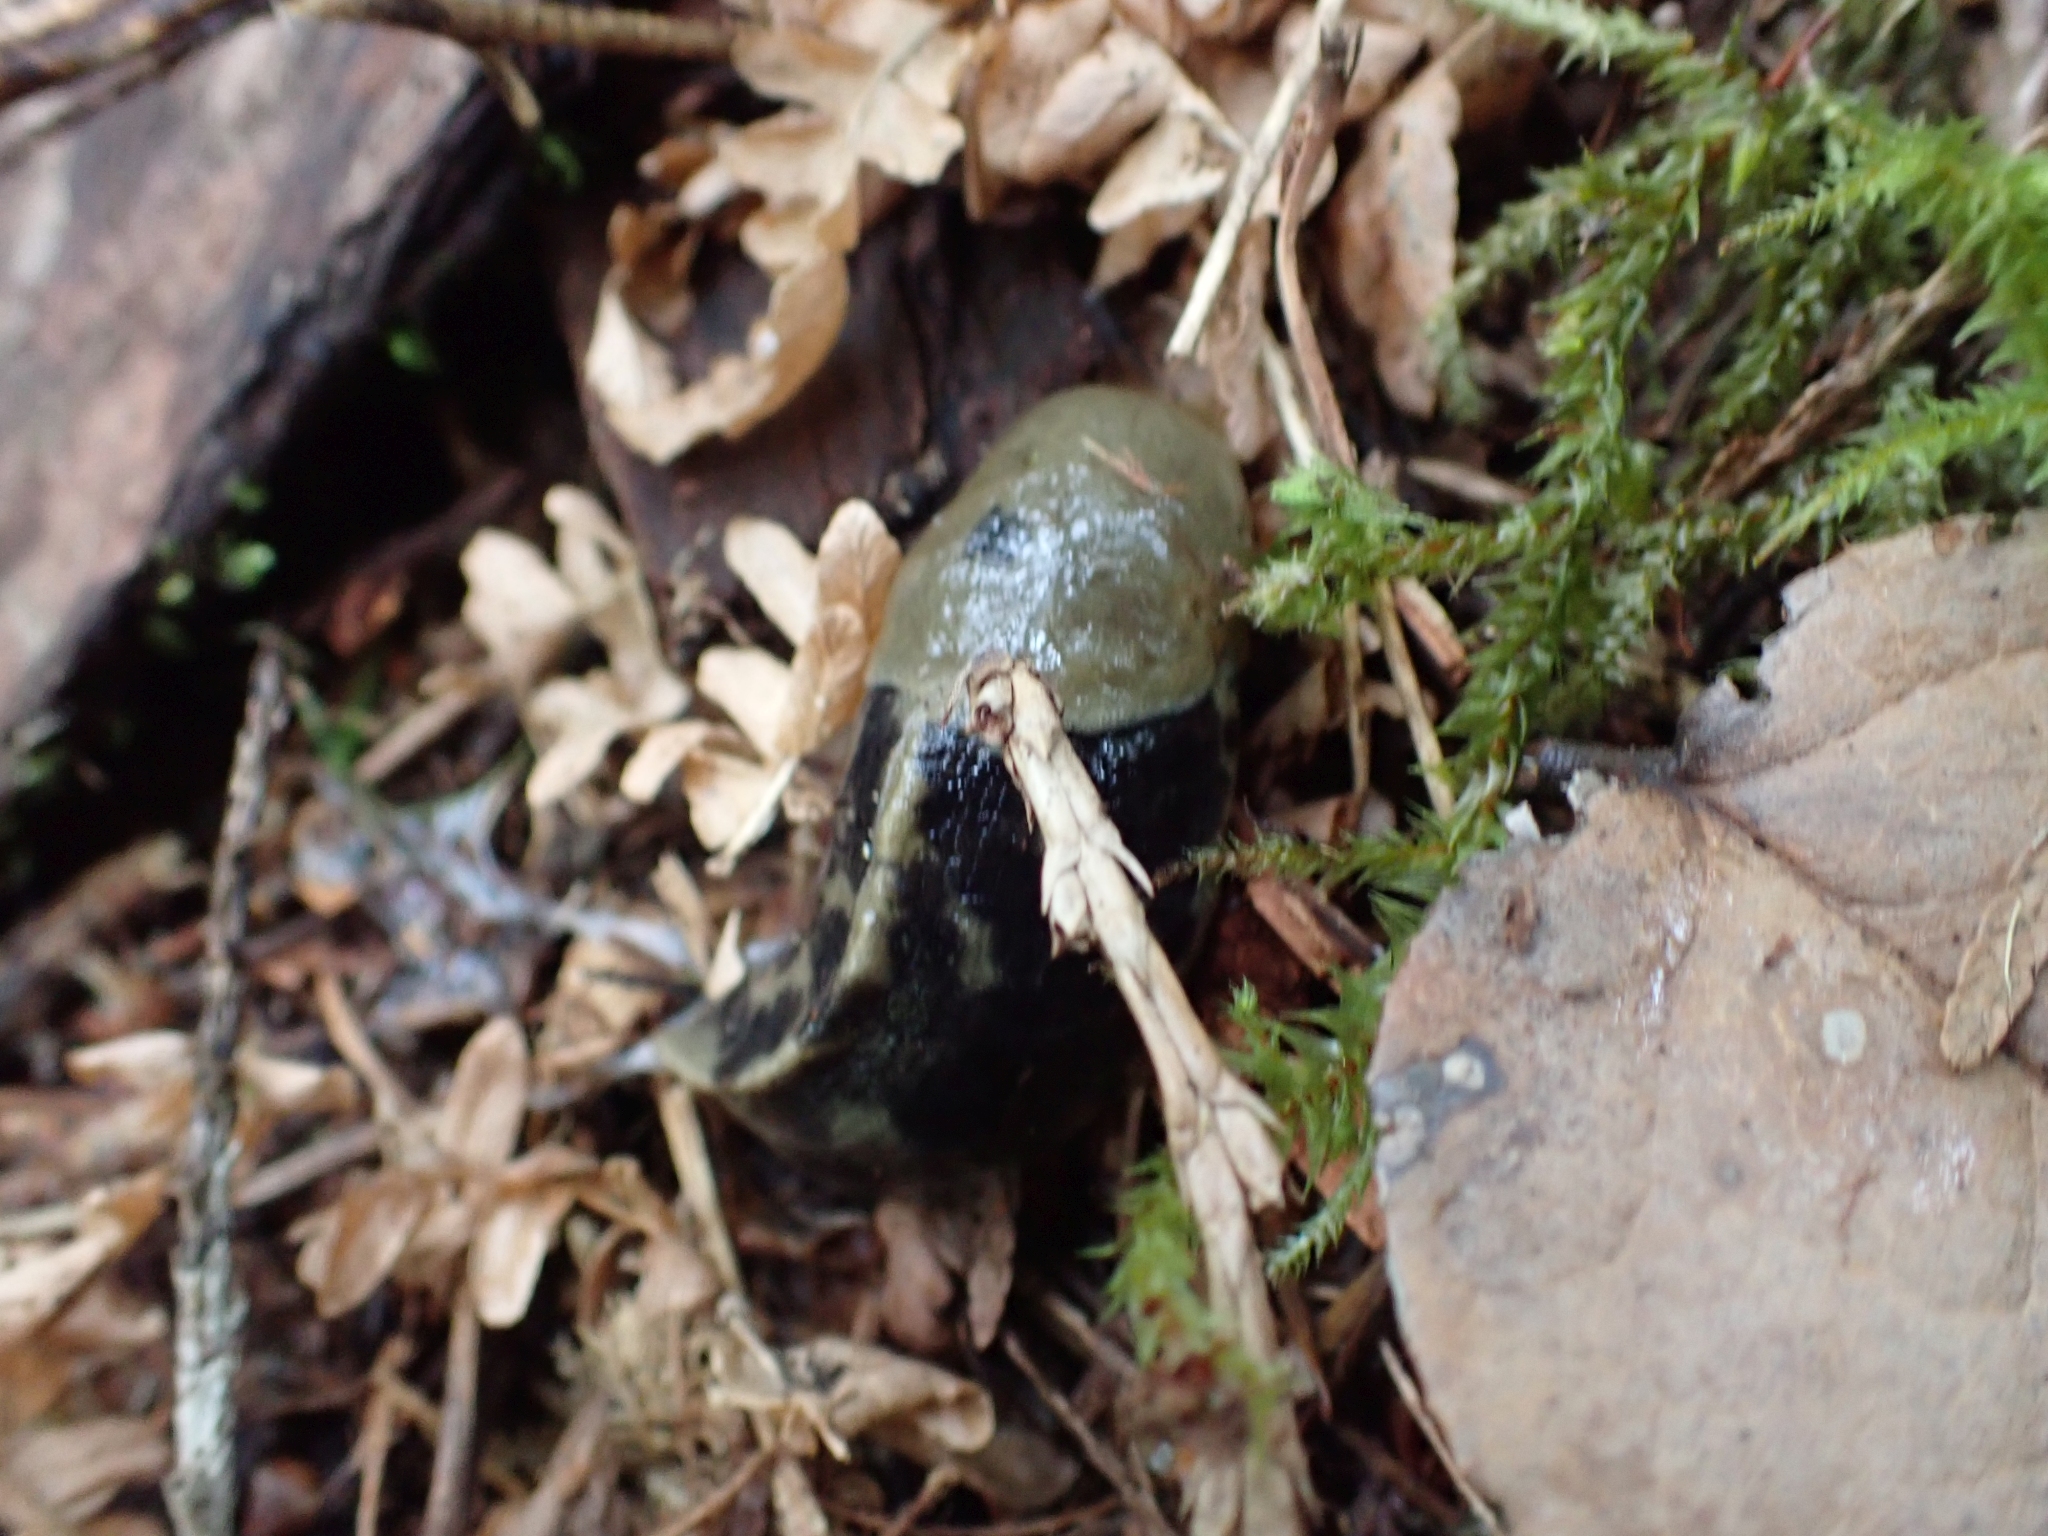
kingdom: Animalia
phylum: Mollusca
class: Gastropoda
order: Stylommatophora
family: Ariolimacidae
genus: Ariolimax
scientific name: Ariolimax columbianus
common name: Pacific banana slug
